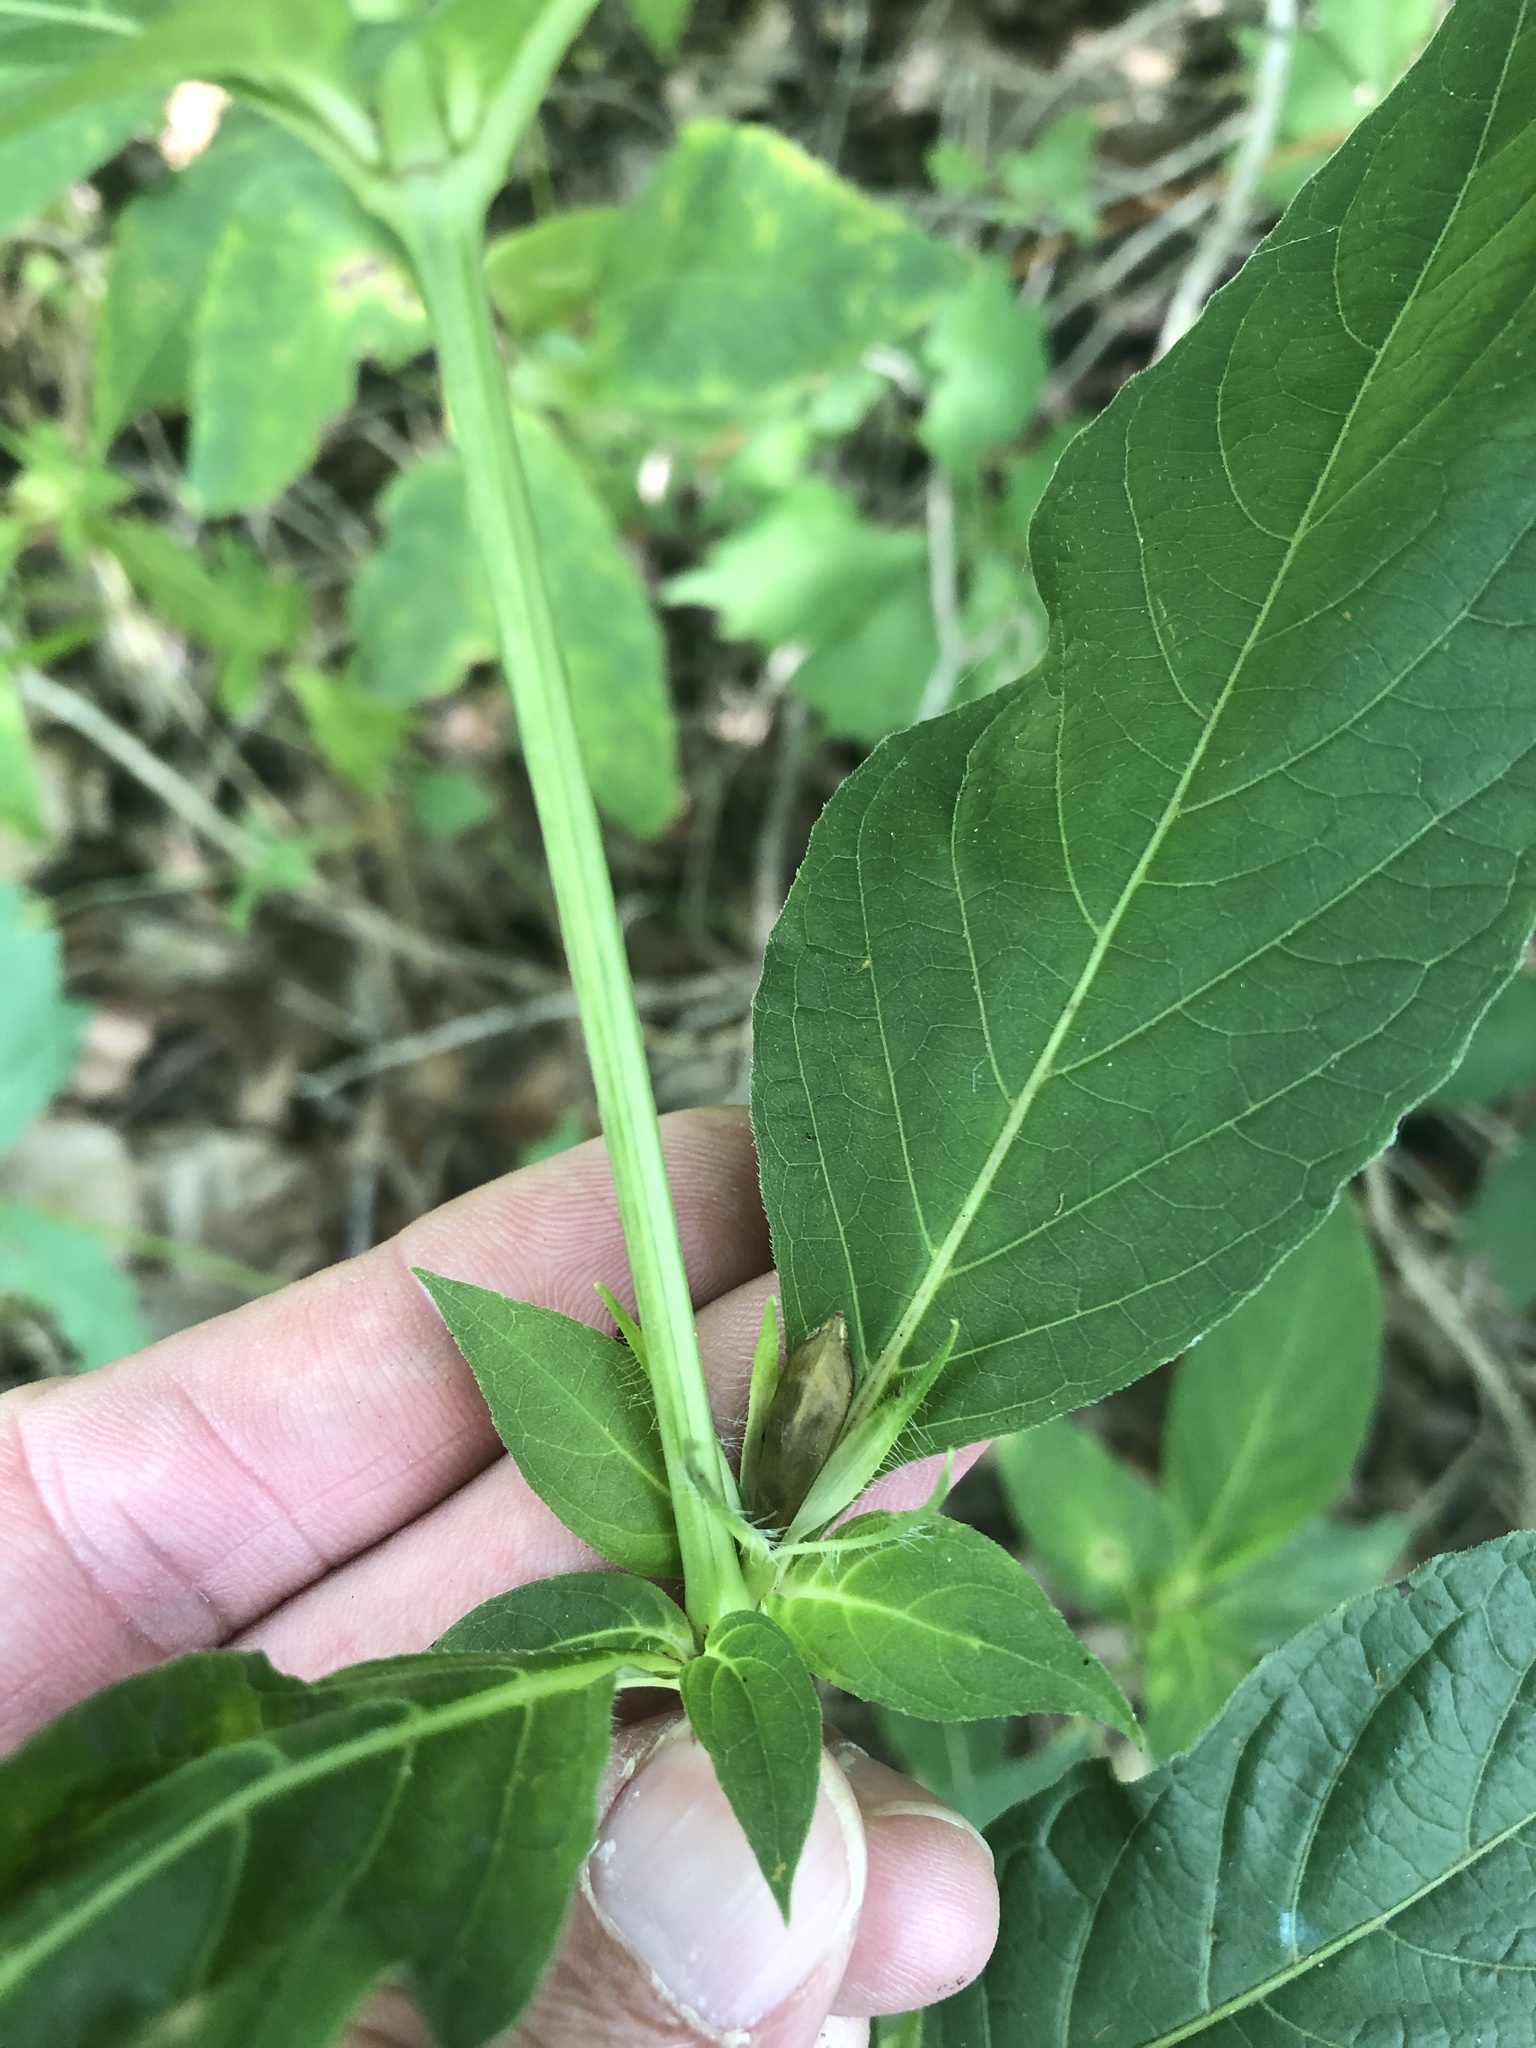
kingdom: Plantae
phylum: Tracheophyta
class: Magnoliopsida
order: Lamiales
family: Acanthaceae
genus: Ruellia
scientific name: Ruellia strepens
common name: Limestone wild petunia
